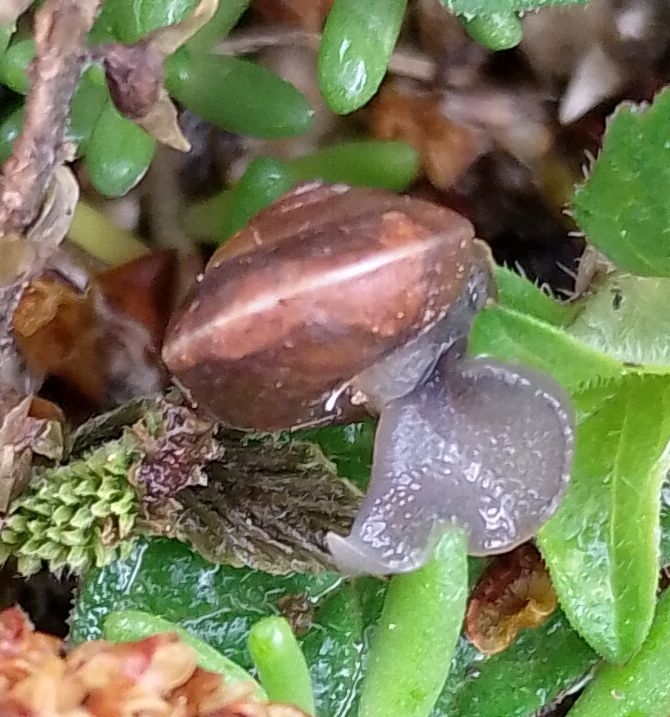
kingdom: Animalia
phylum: Mollusca
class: Gastropoda
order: Stylommatophora
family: Hygromiidae
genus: Hygromia
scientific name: Hygromia cinctella
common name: Girdled snail
